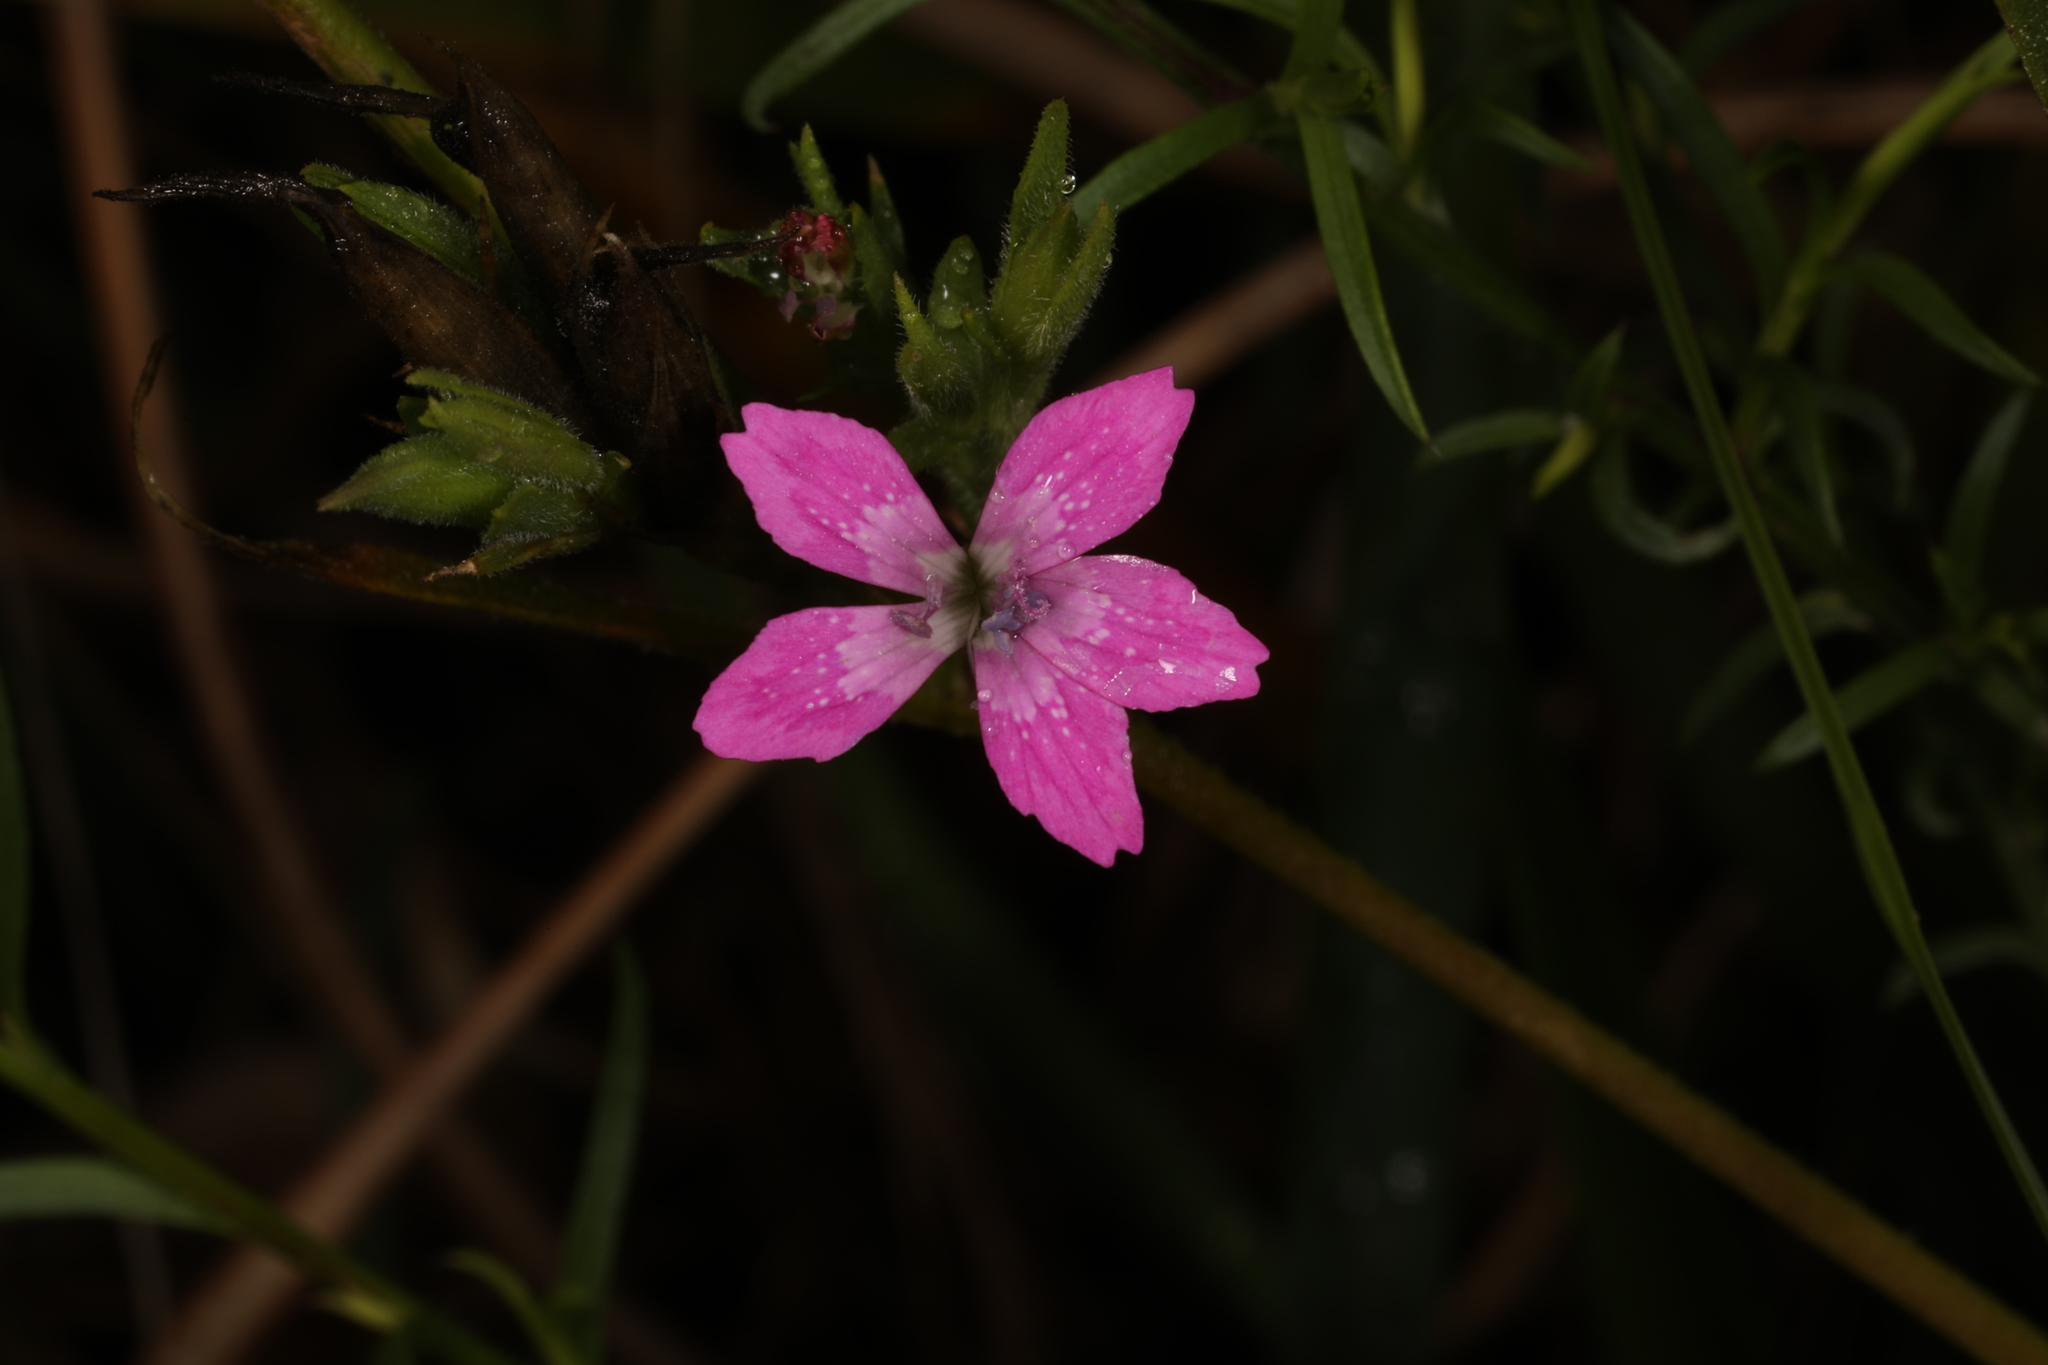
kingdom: Plantae
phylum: Tracheophyta
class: Magnoliopsida
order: Caryophyllales
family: Caryophyllaceae
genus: Dianthus
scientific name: Dianthus armeria
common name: Deptford pink
